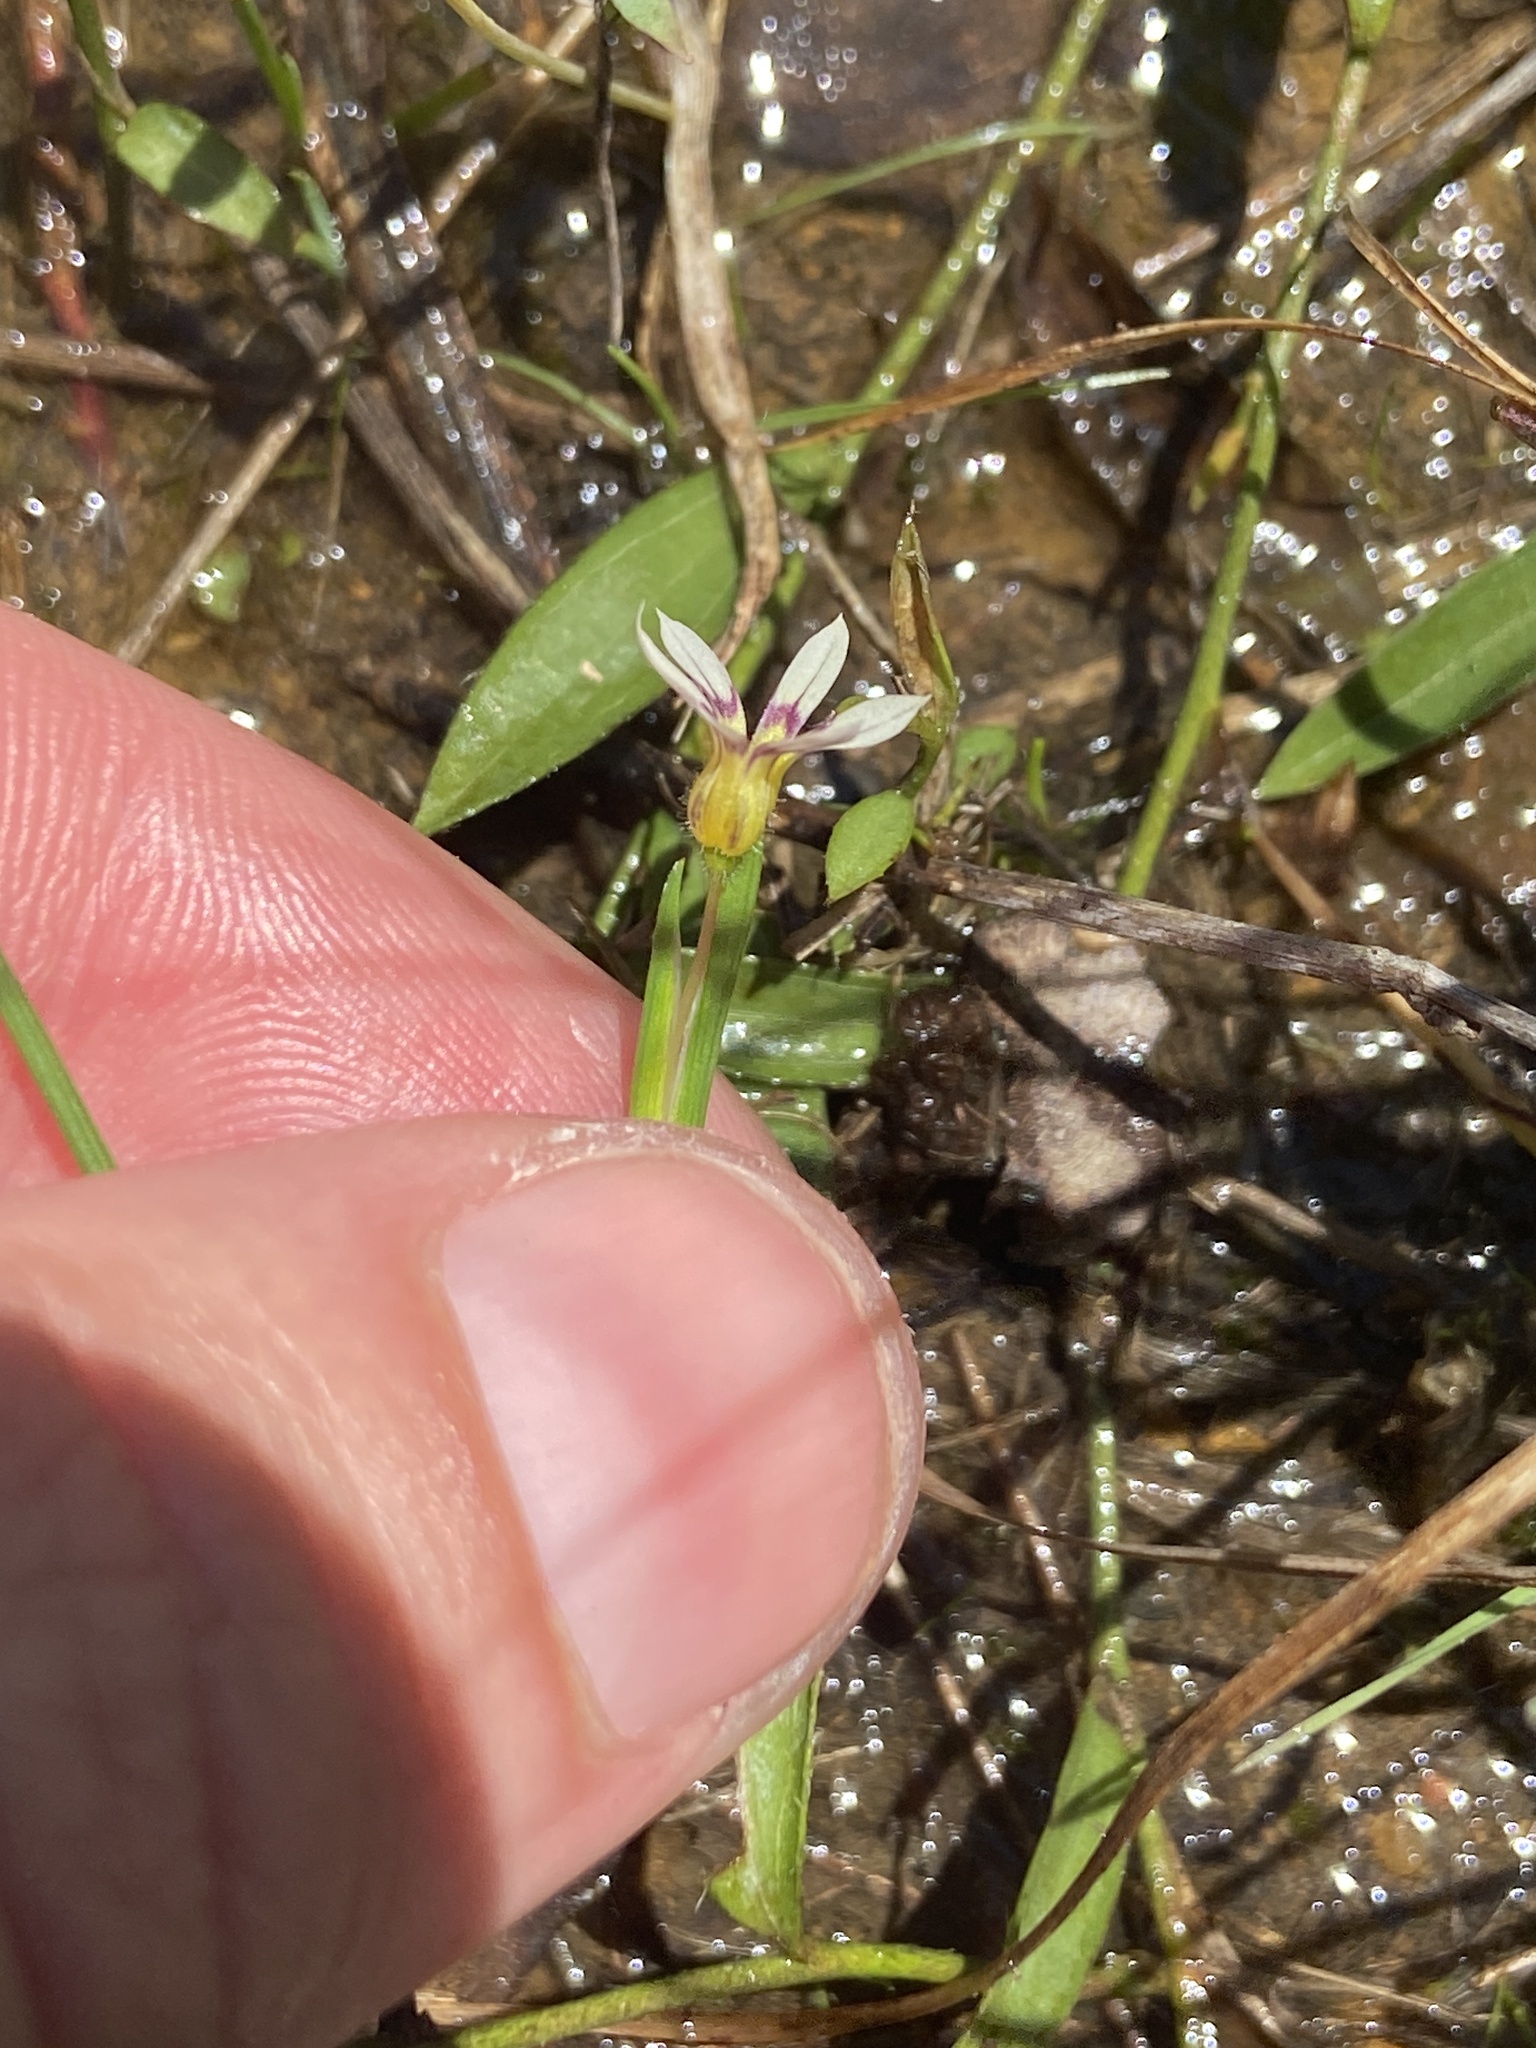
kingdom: Plantae
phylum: Tracheophyta
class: Liliopsida
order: Asparagales
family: Iridaceae
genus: Sisyrinchium
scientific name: Sisyrinchium micranthum
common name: Bermuda pigroot
